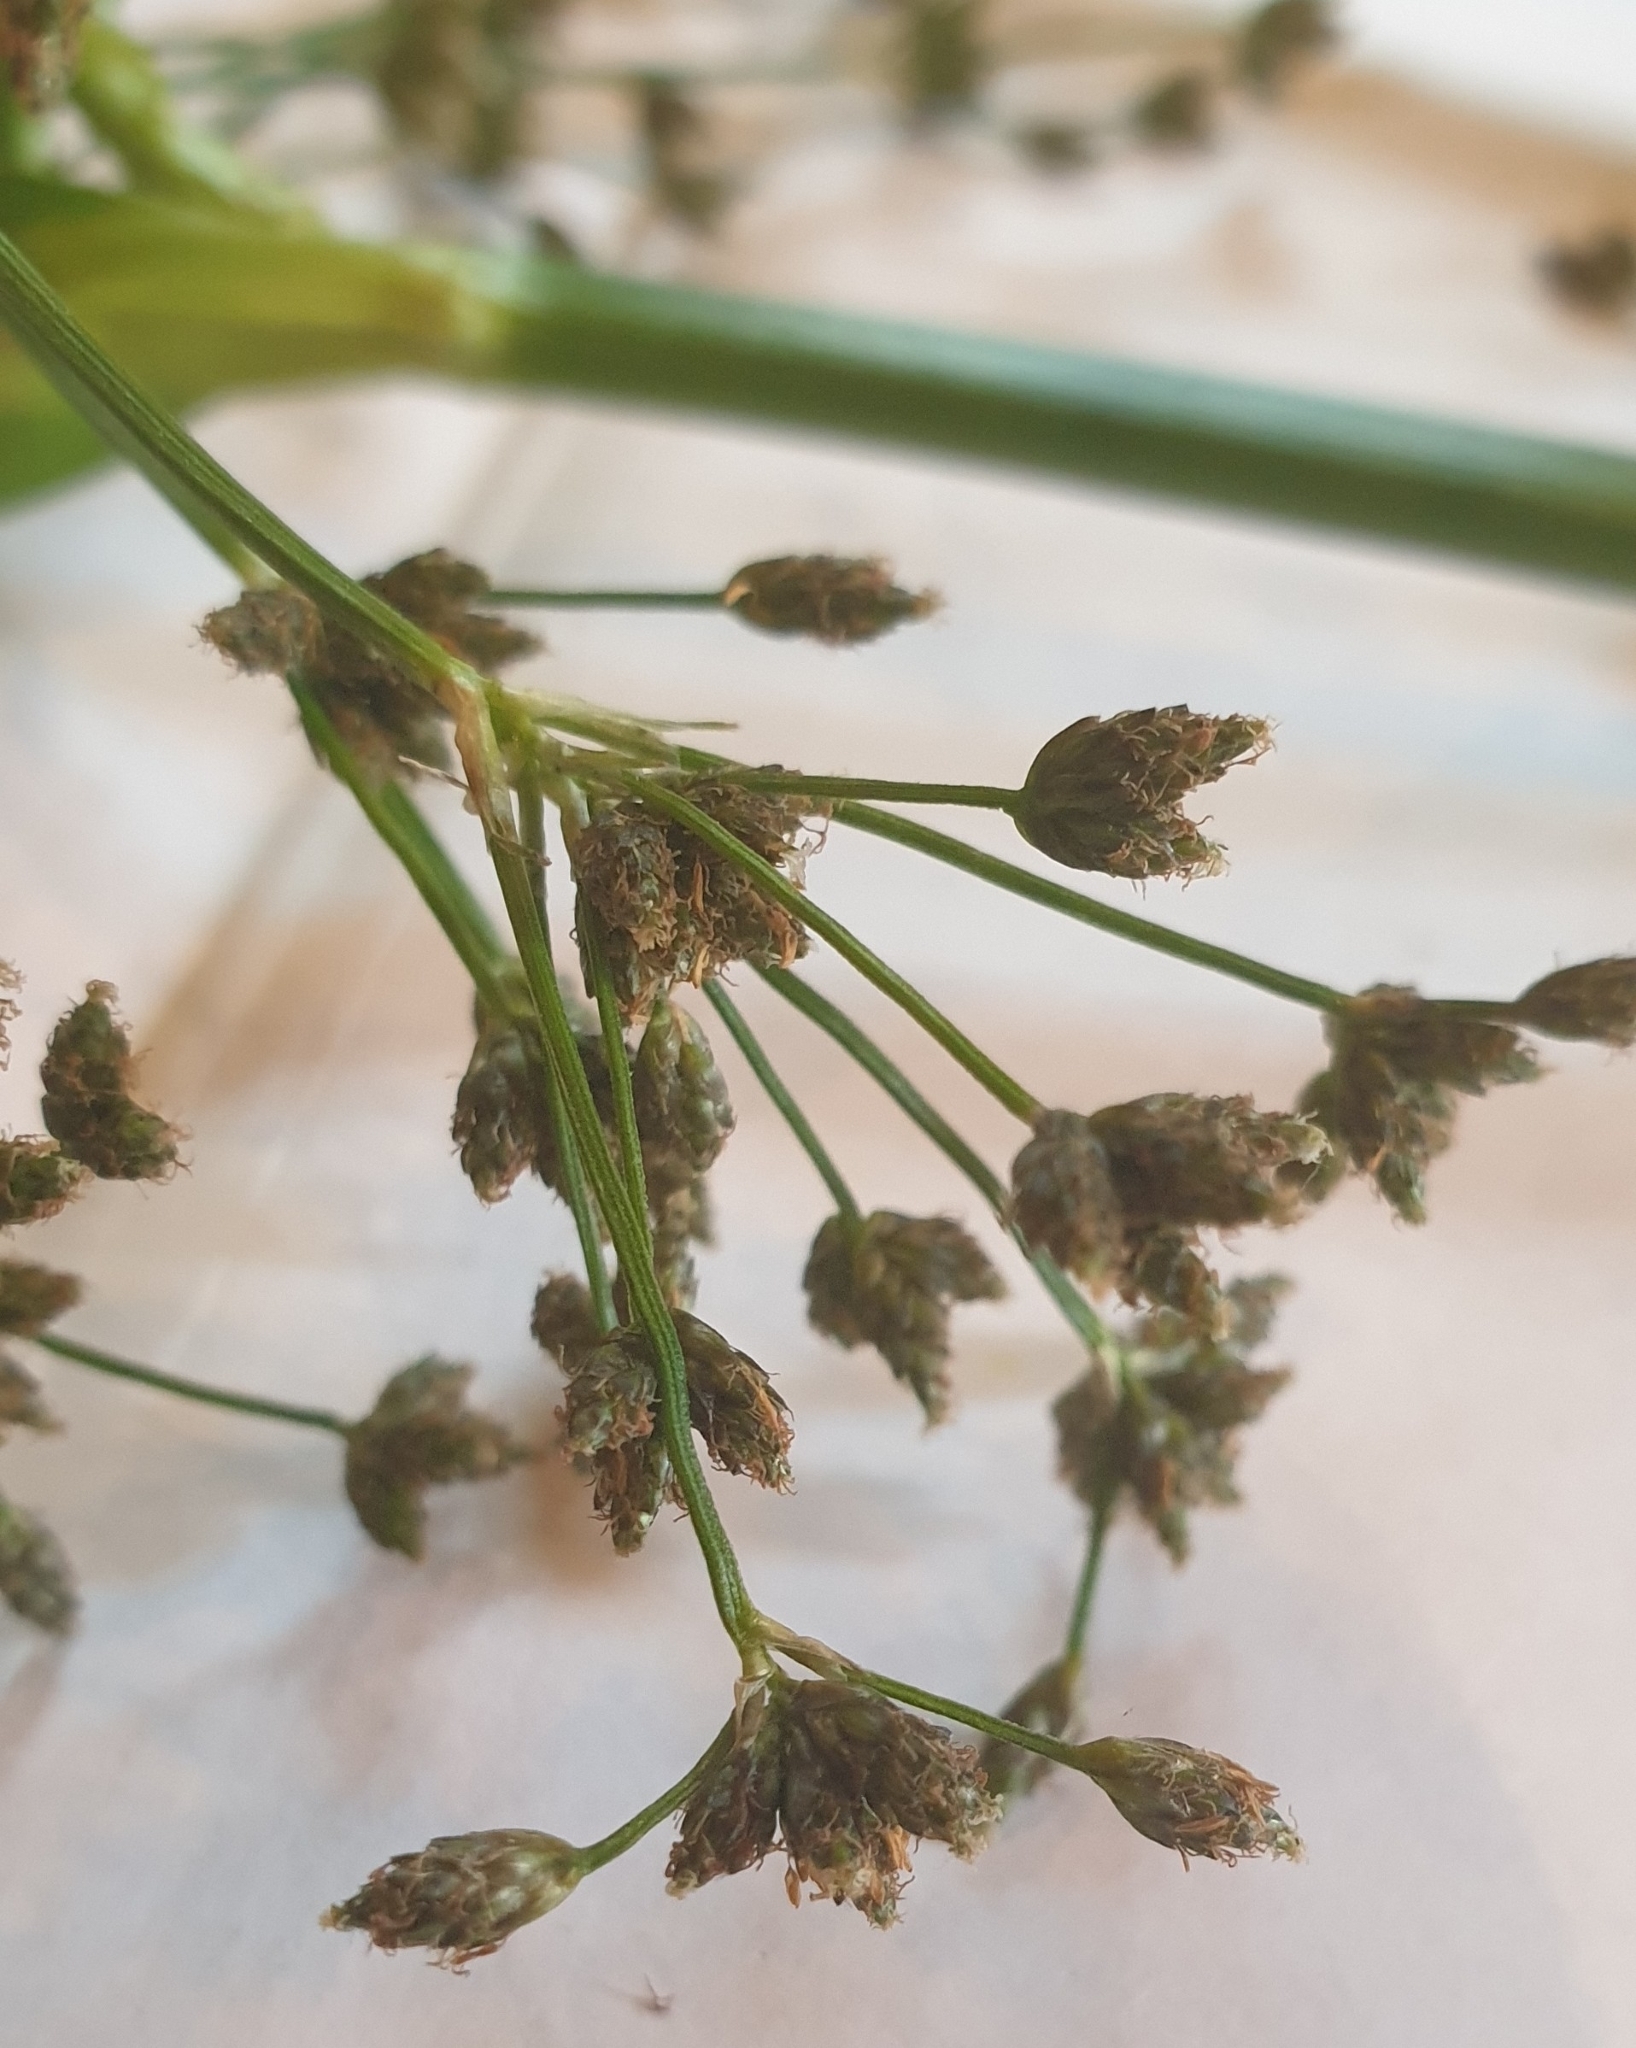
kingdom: Plantae
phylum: Tracheophyta
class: Liliopsida
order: Poales
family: Cyperaceae
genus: Scirpus
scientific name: Scirpus sylvaticus
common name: Wood club-rush
